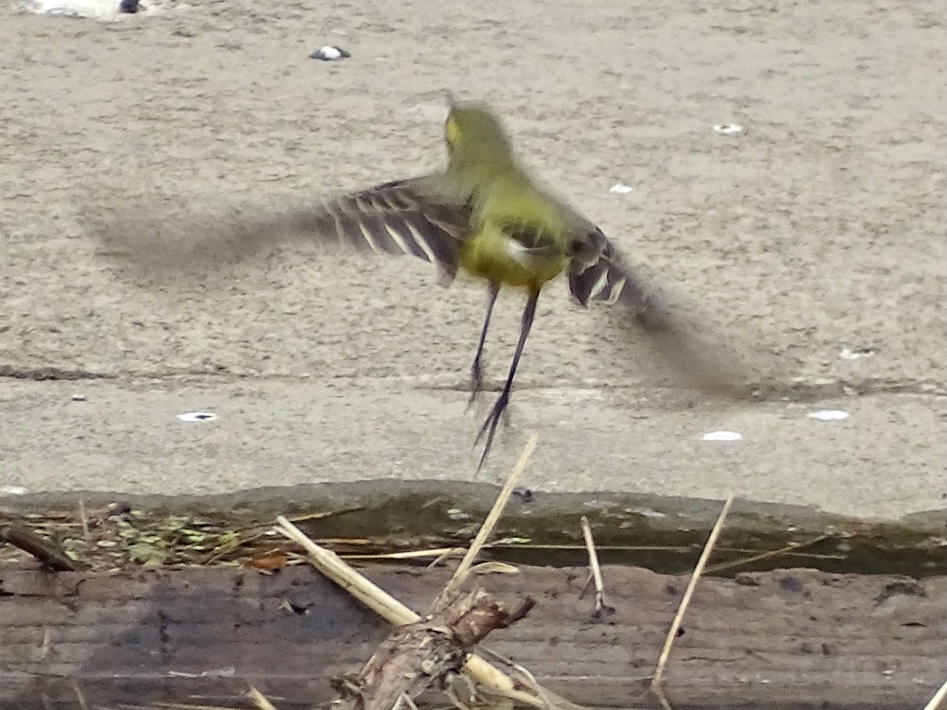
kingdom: Animalia
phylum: Chordata
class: Aves
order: Passeriformes
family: Motacillidae
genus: Motacilla
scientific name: Motacilla tschutschensis
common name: Eastern yellow wagtail
